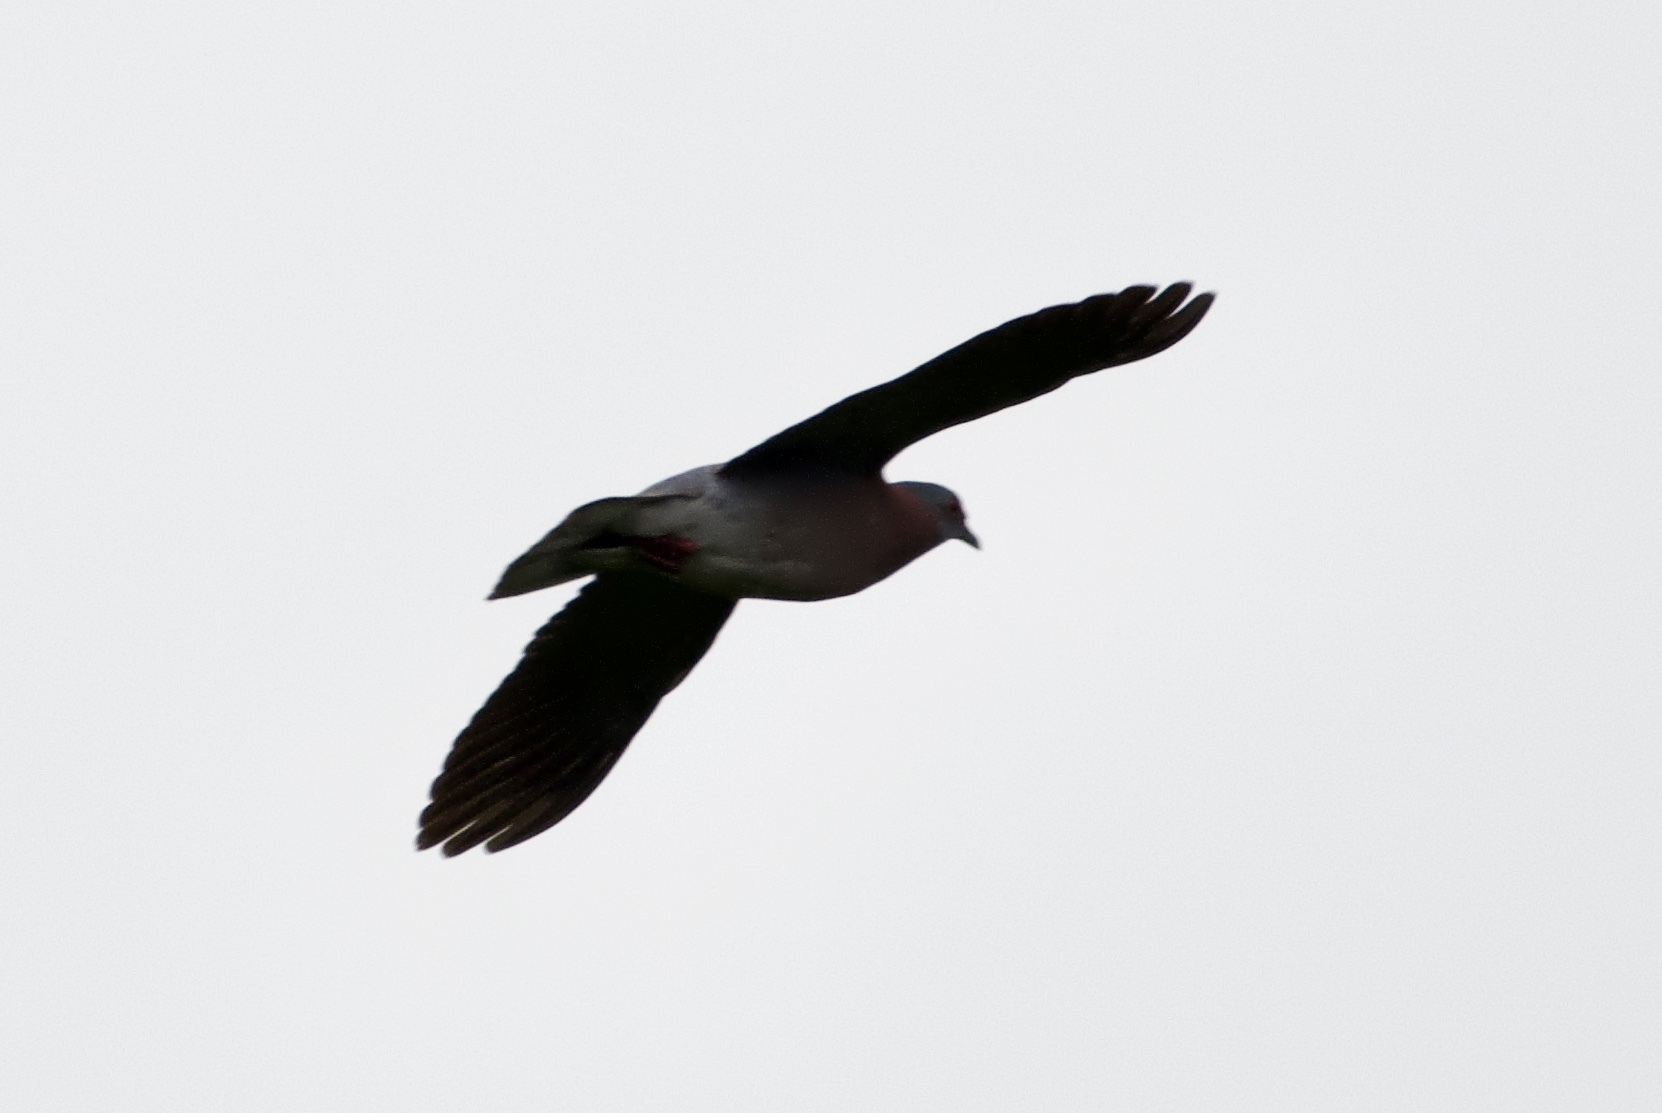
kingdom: Animalia
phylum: Chordata
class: Aves
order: Columbiformes
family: Columbidae
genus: Patagioenas
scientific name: Patagioenas cayennensis
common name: Pale-vented pigeon
